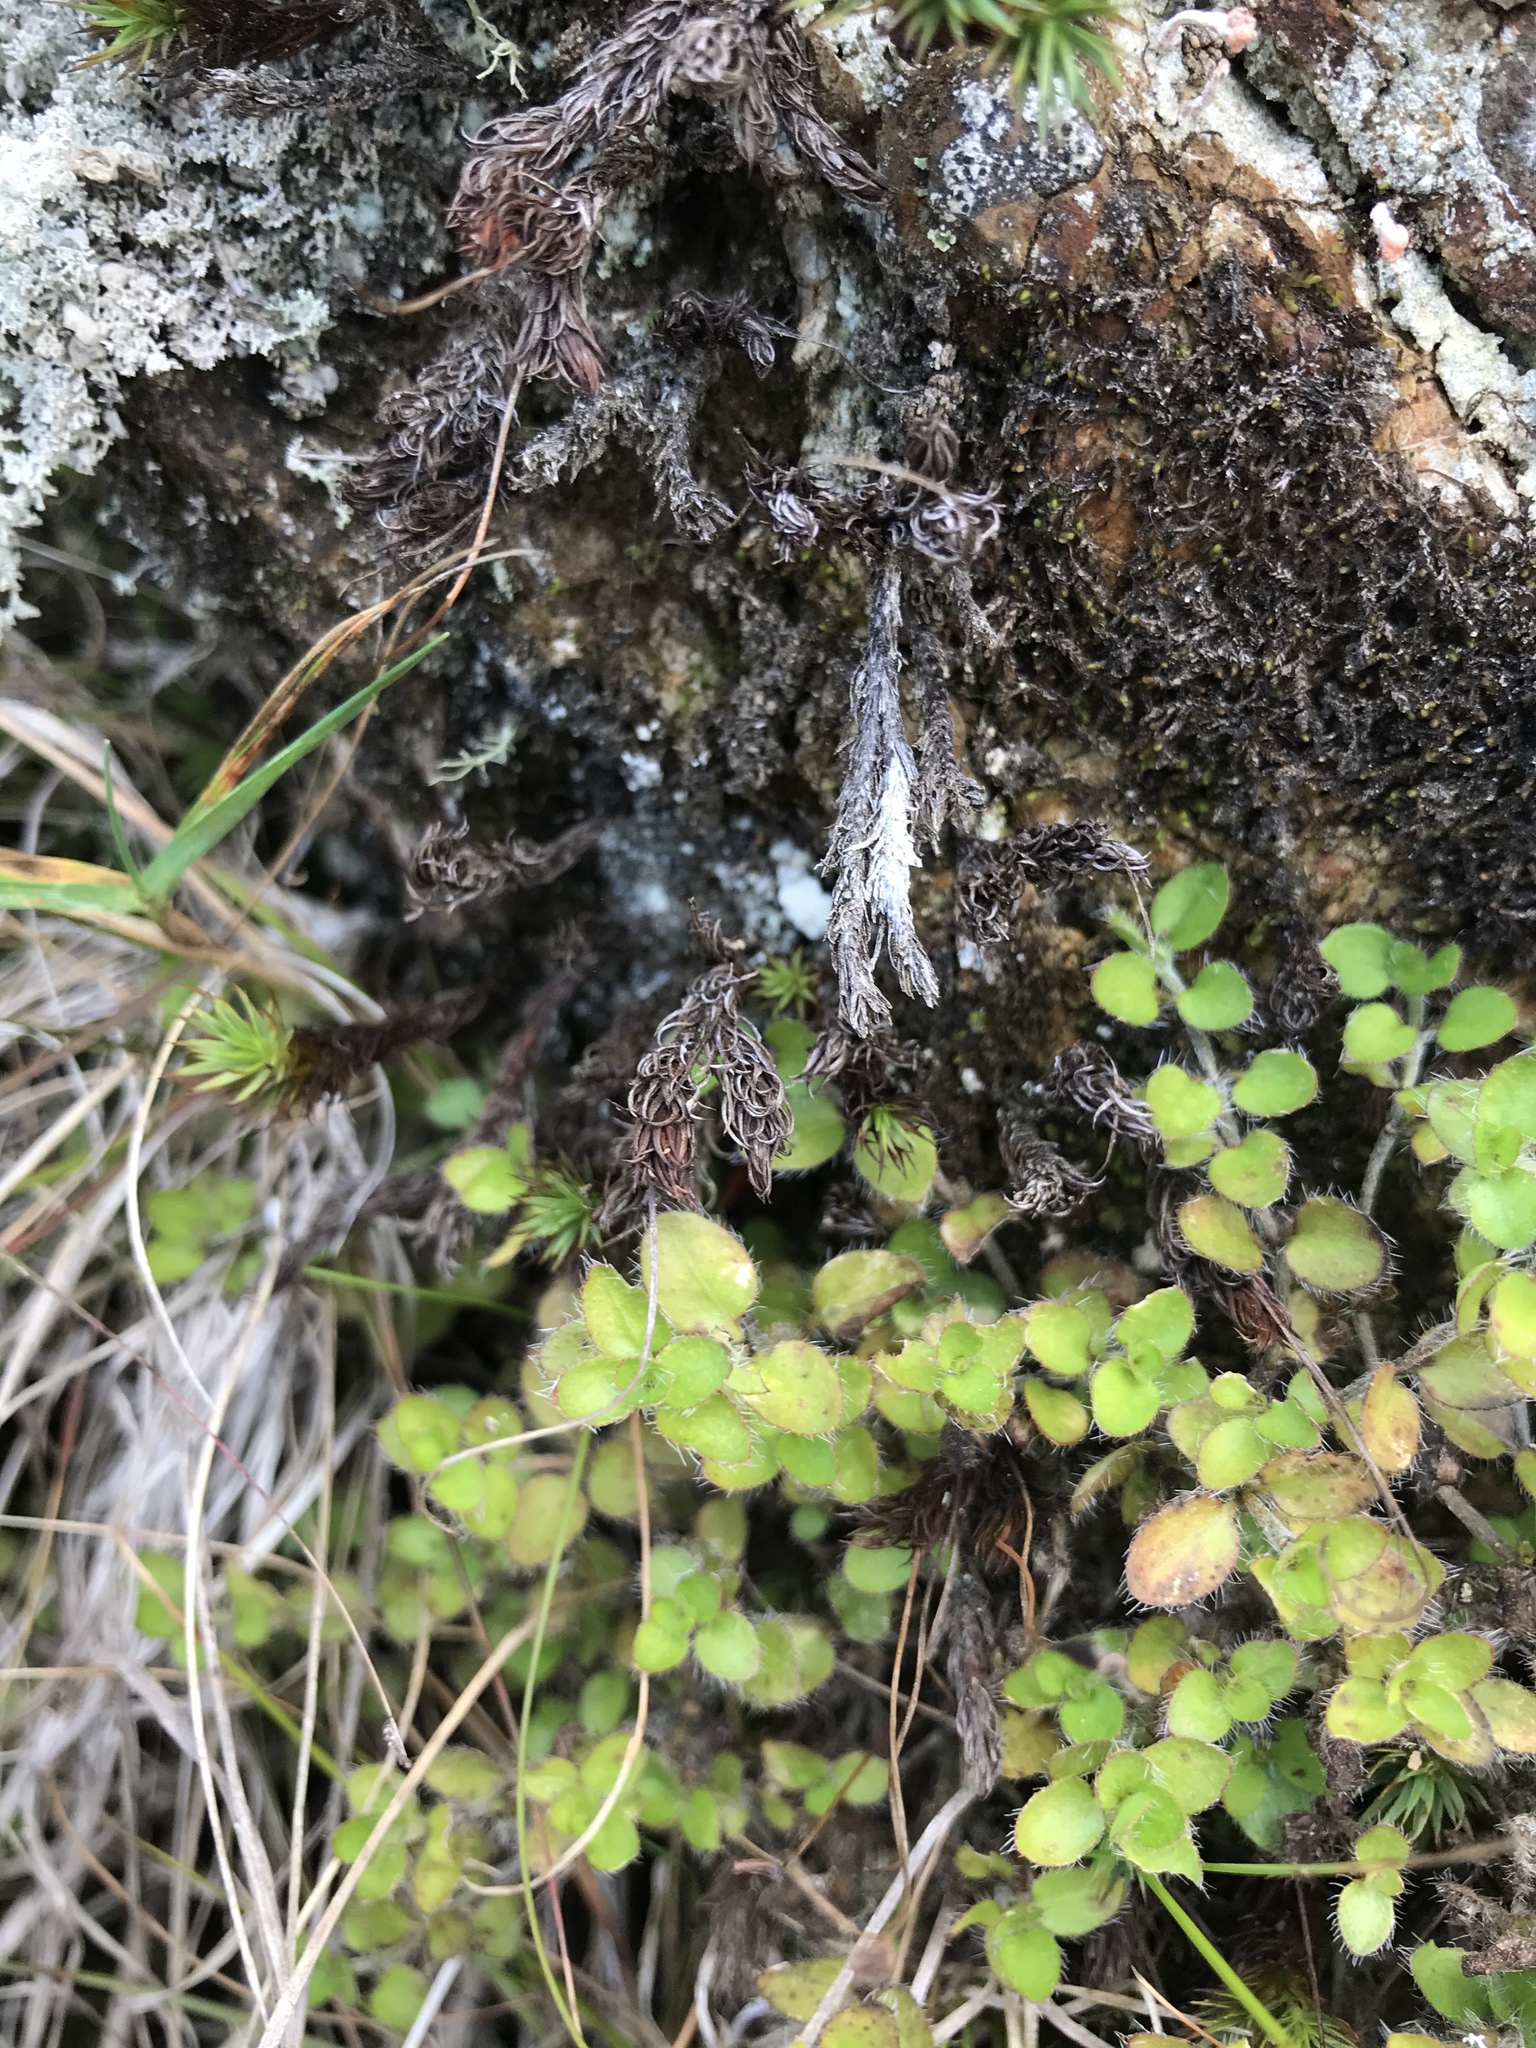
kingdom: Plantae
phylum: Tracheophyta
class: Magnoliopsida
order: Gentianales
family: Rubiaceae
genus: Leptostigma
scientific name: Leptostigma setulosum
